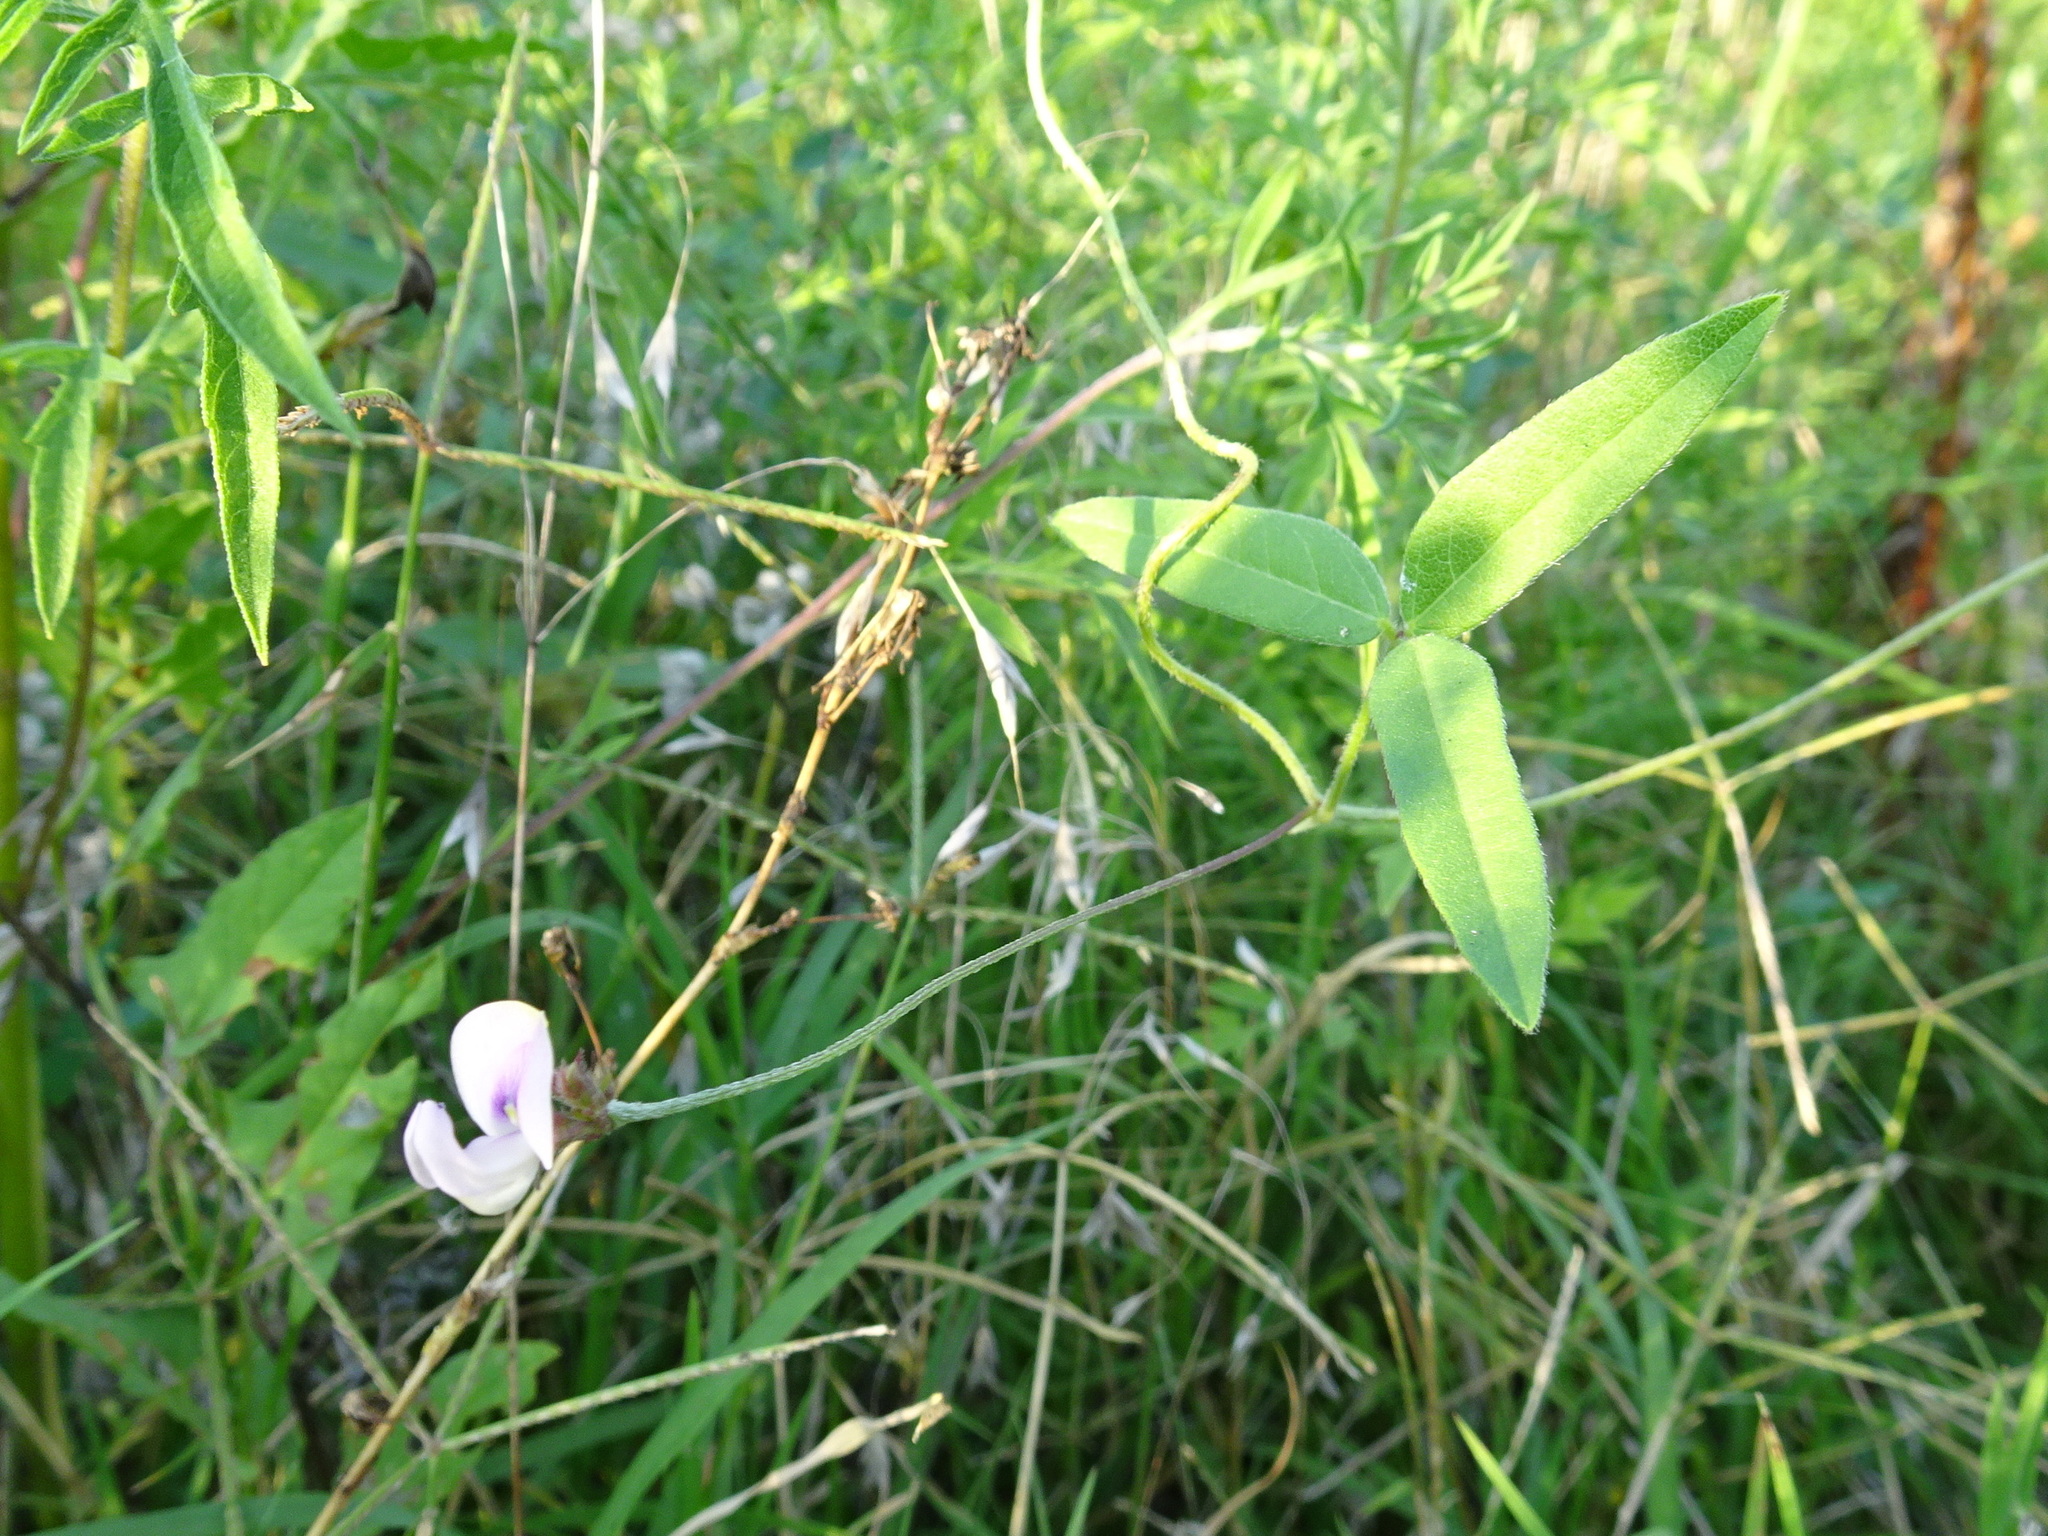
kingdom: Plantae
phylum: Tracheophyta
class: Magnoliopsida
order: Fabales
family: Fabaceae
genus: Strophostyles
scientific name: Strophostyles leiosperma
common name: Smooth-seed wild bean
